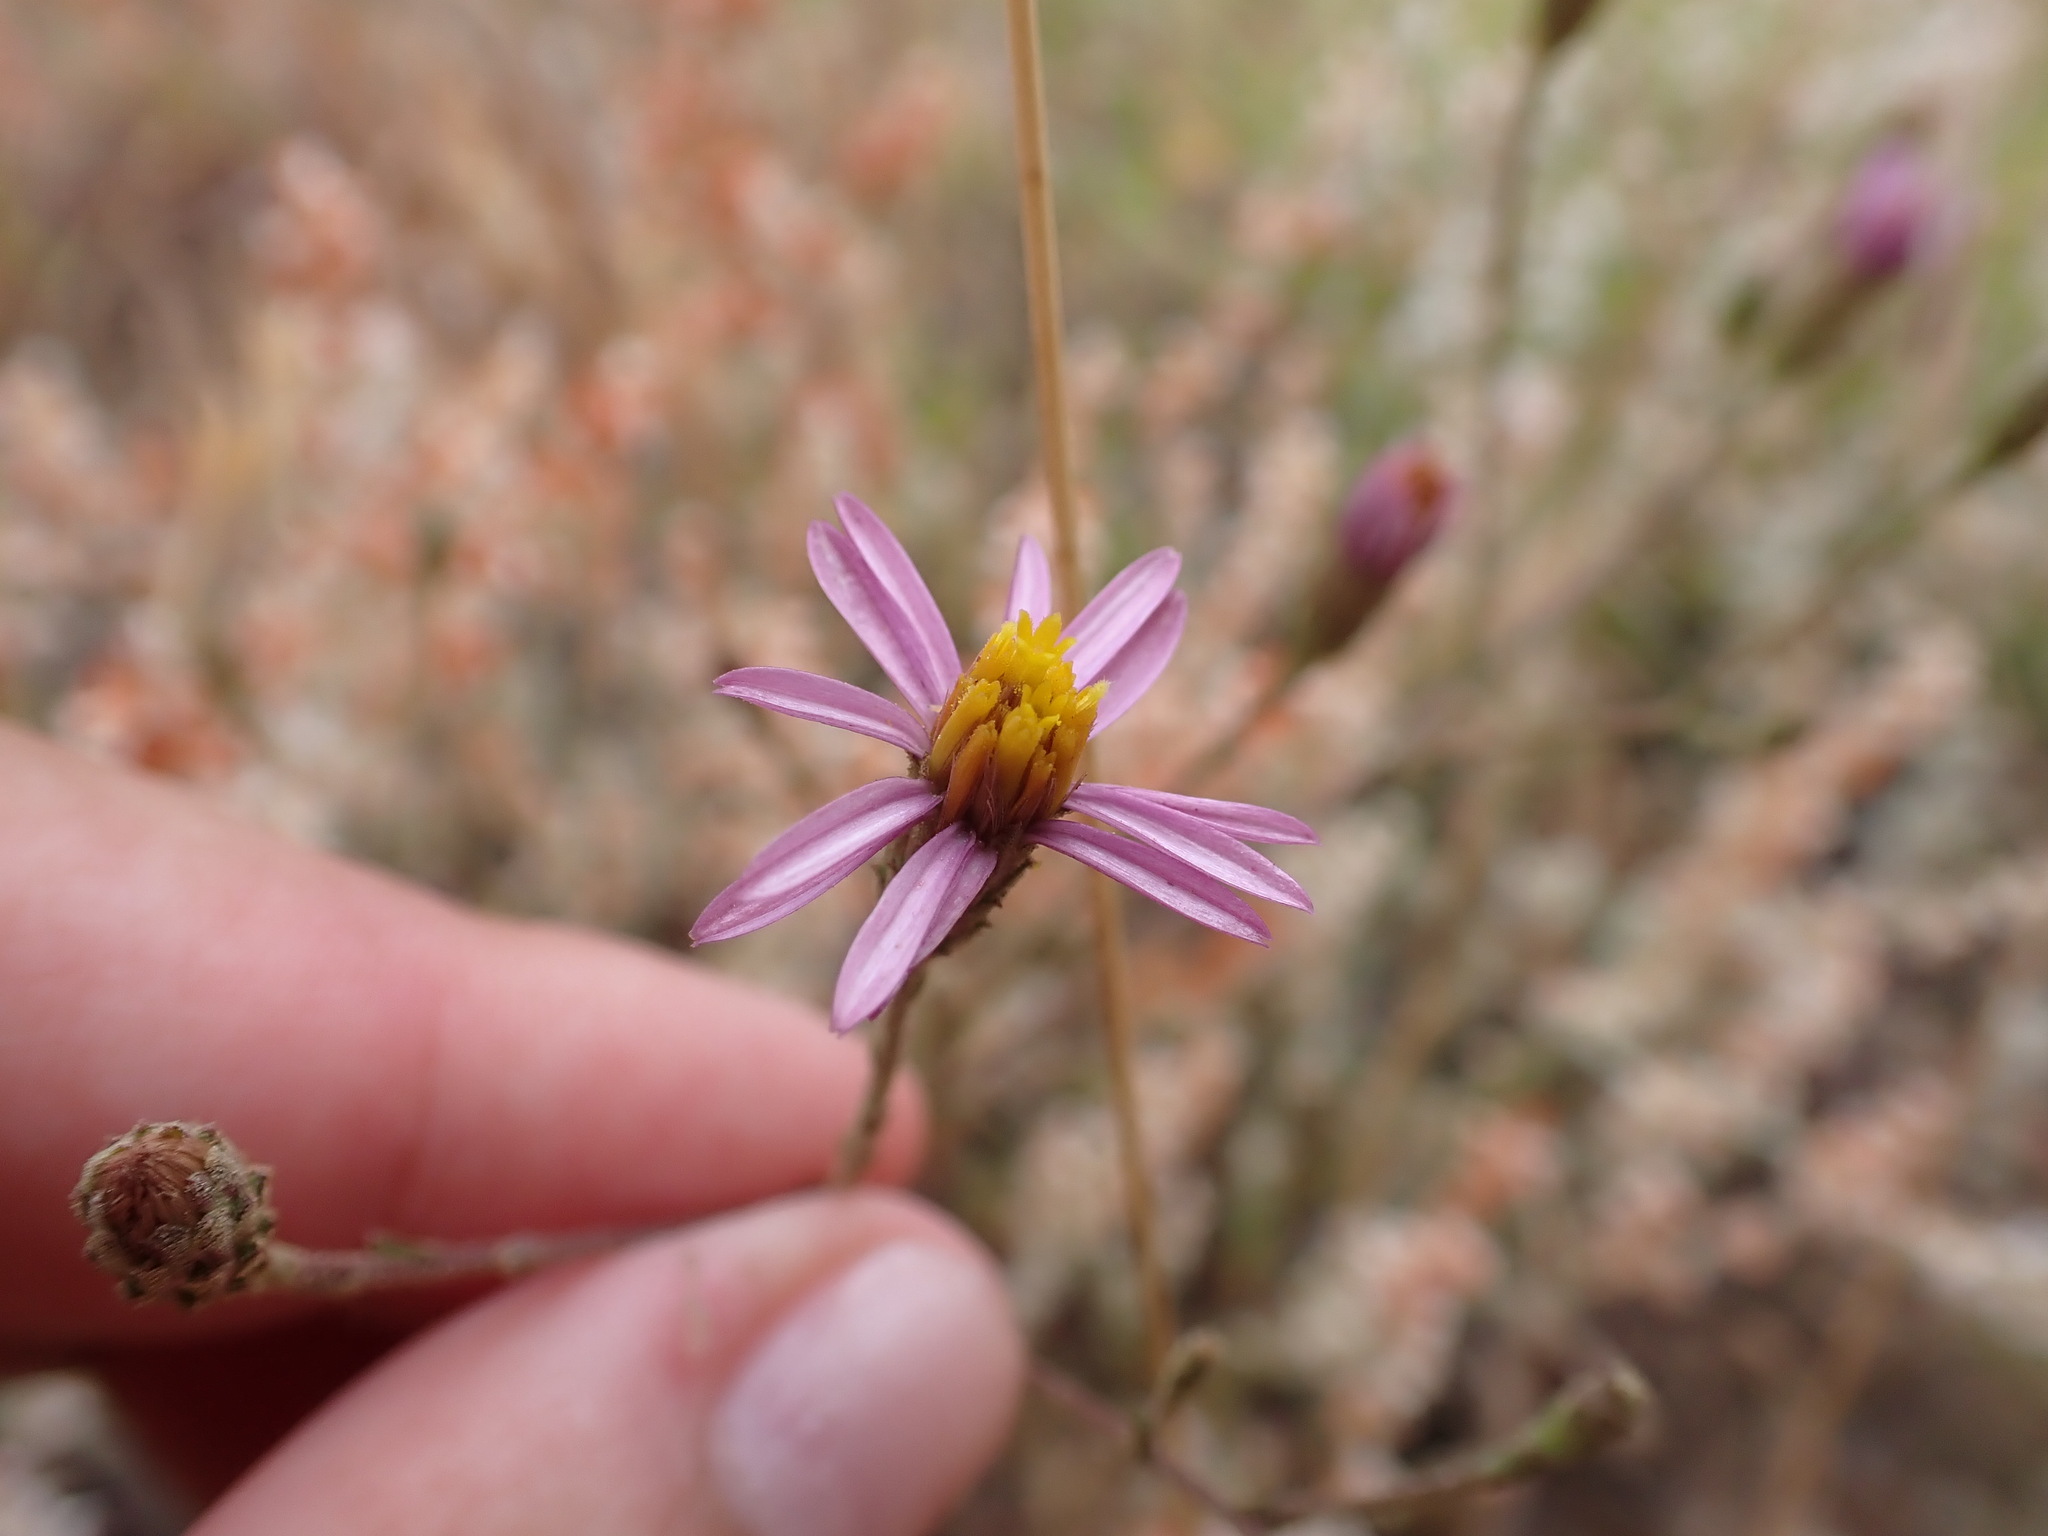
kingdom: Plantae
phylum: Tracheophyta
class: Magnoliopsida
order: Asterales
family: Asteraceae
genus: Corethrogyne
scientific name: Corethrogyne filaginifolia
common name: Sand-aster
